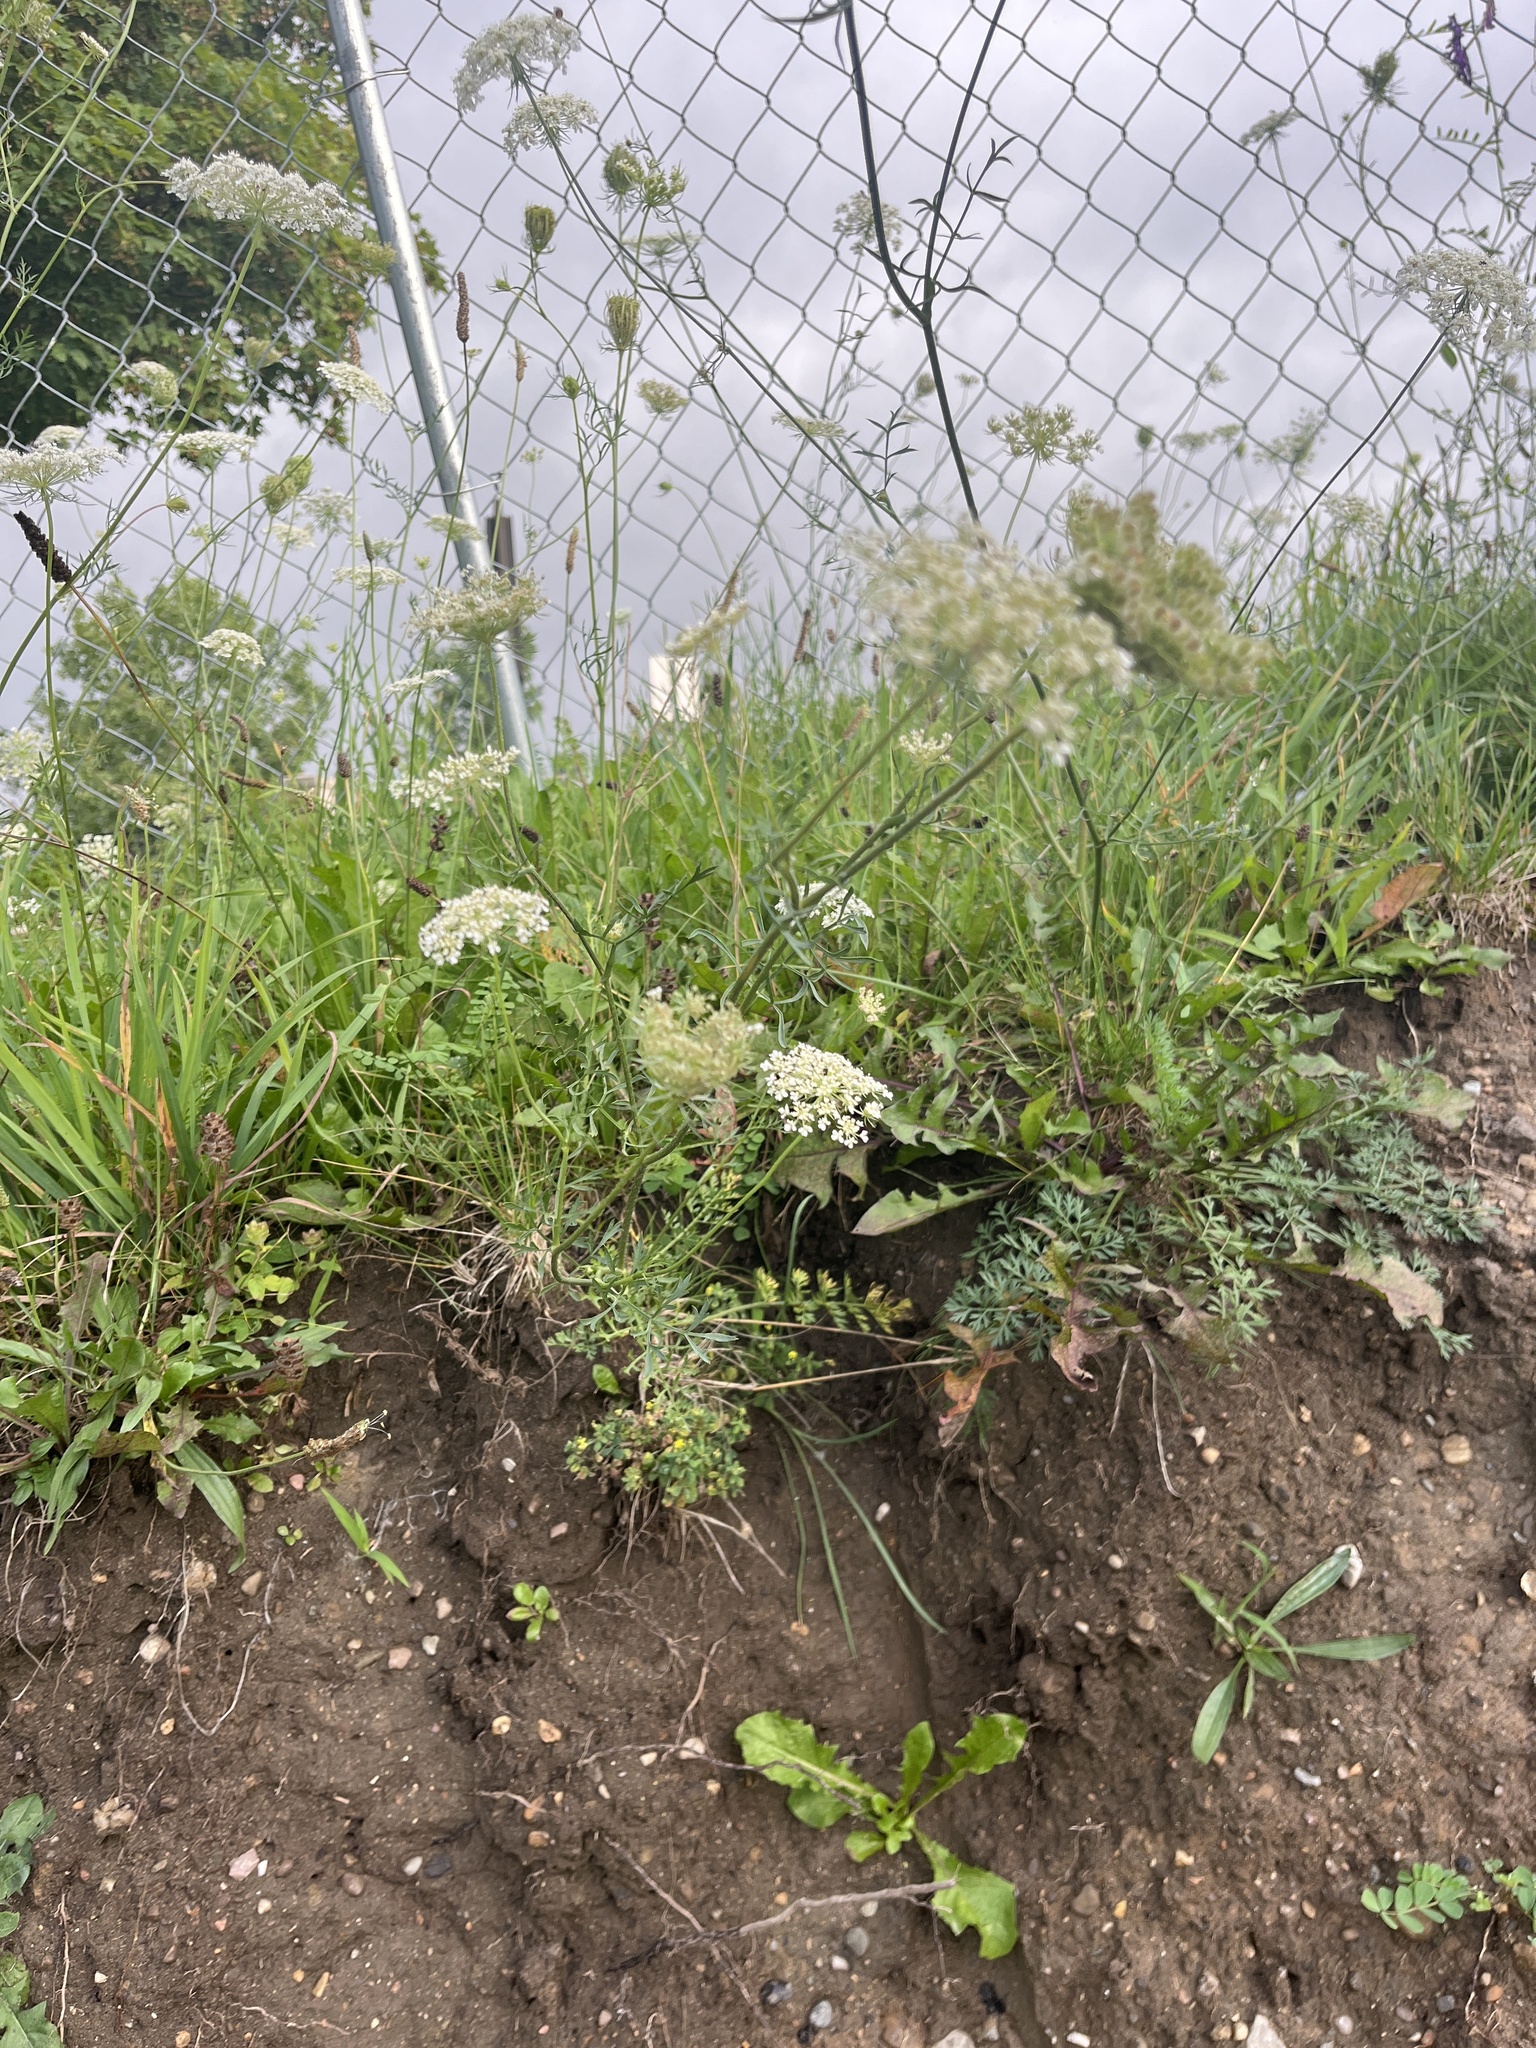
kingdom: Plantae
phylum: Tracheophyta
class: Magnoliopsida
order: Apiales
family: Apiaceae
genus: Daucus
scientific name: Daucus carota
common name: Wild carrot
